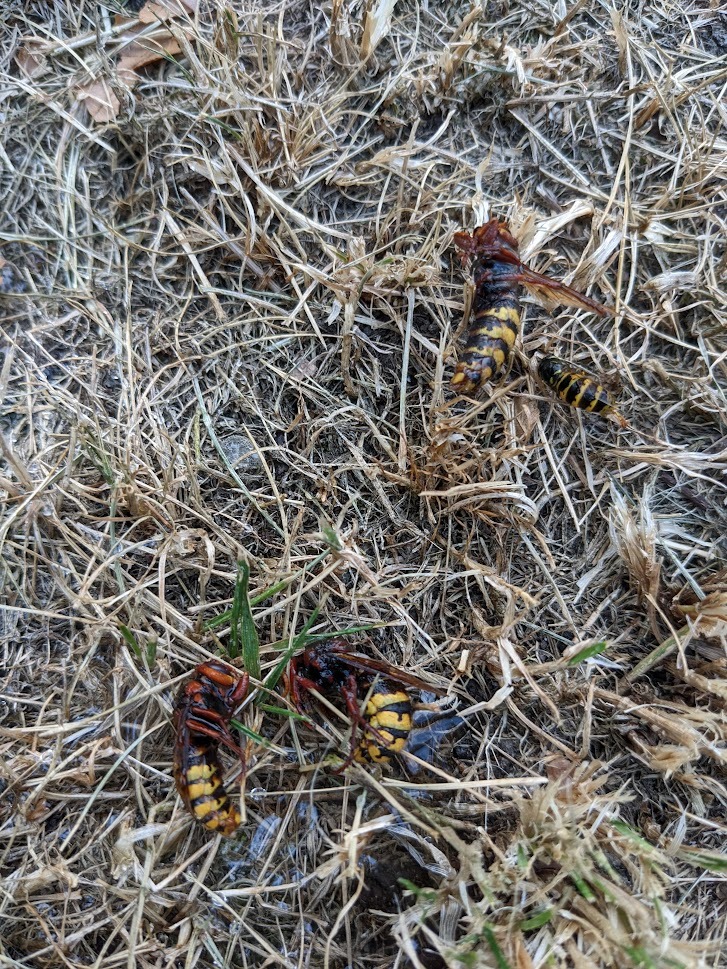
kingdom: Animalia
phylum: Arthropoda
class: Insecta
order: Hymenoptera
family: Vespidae
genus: Vespa
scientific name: Vespa crabro
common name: Hornet
